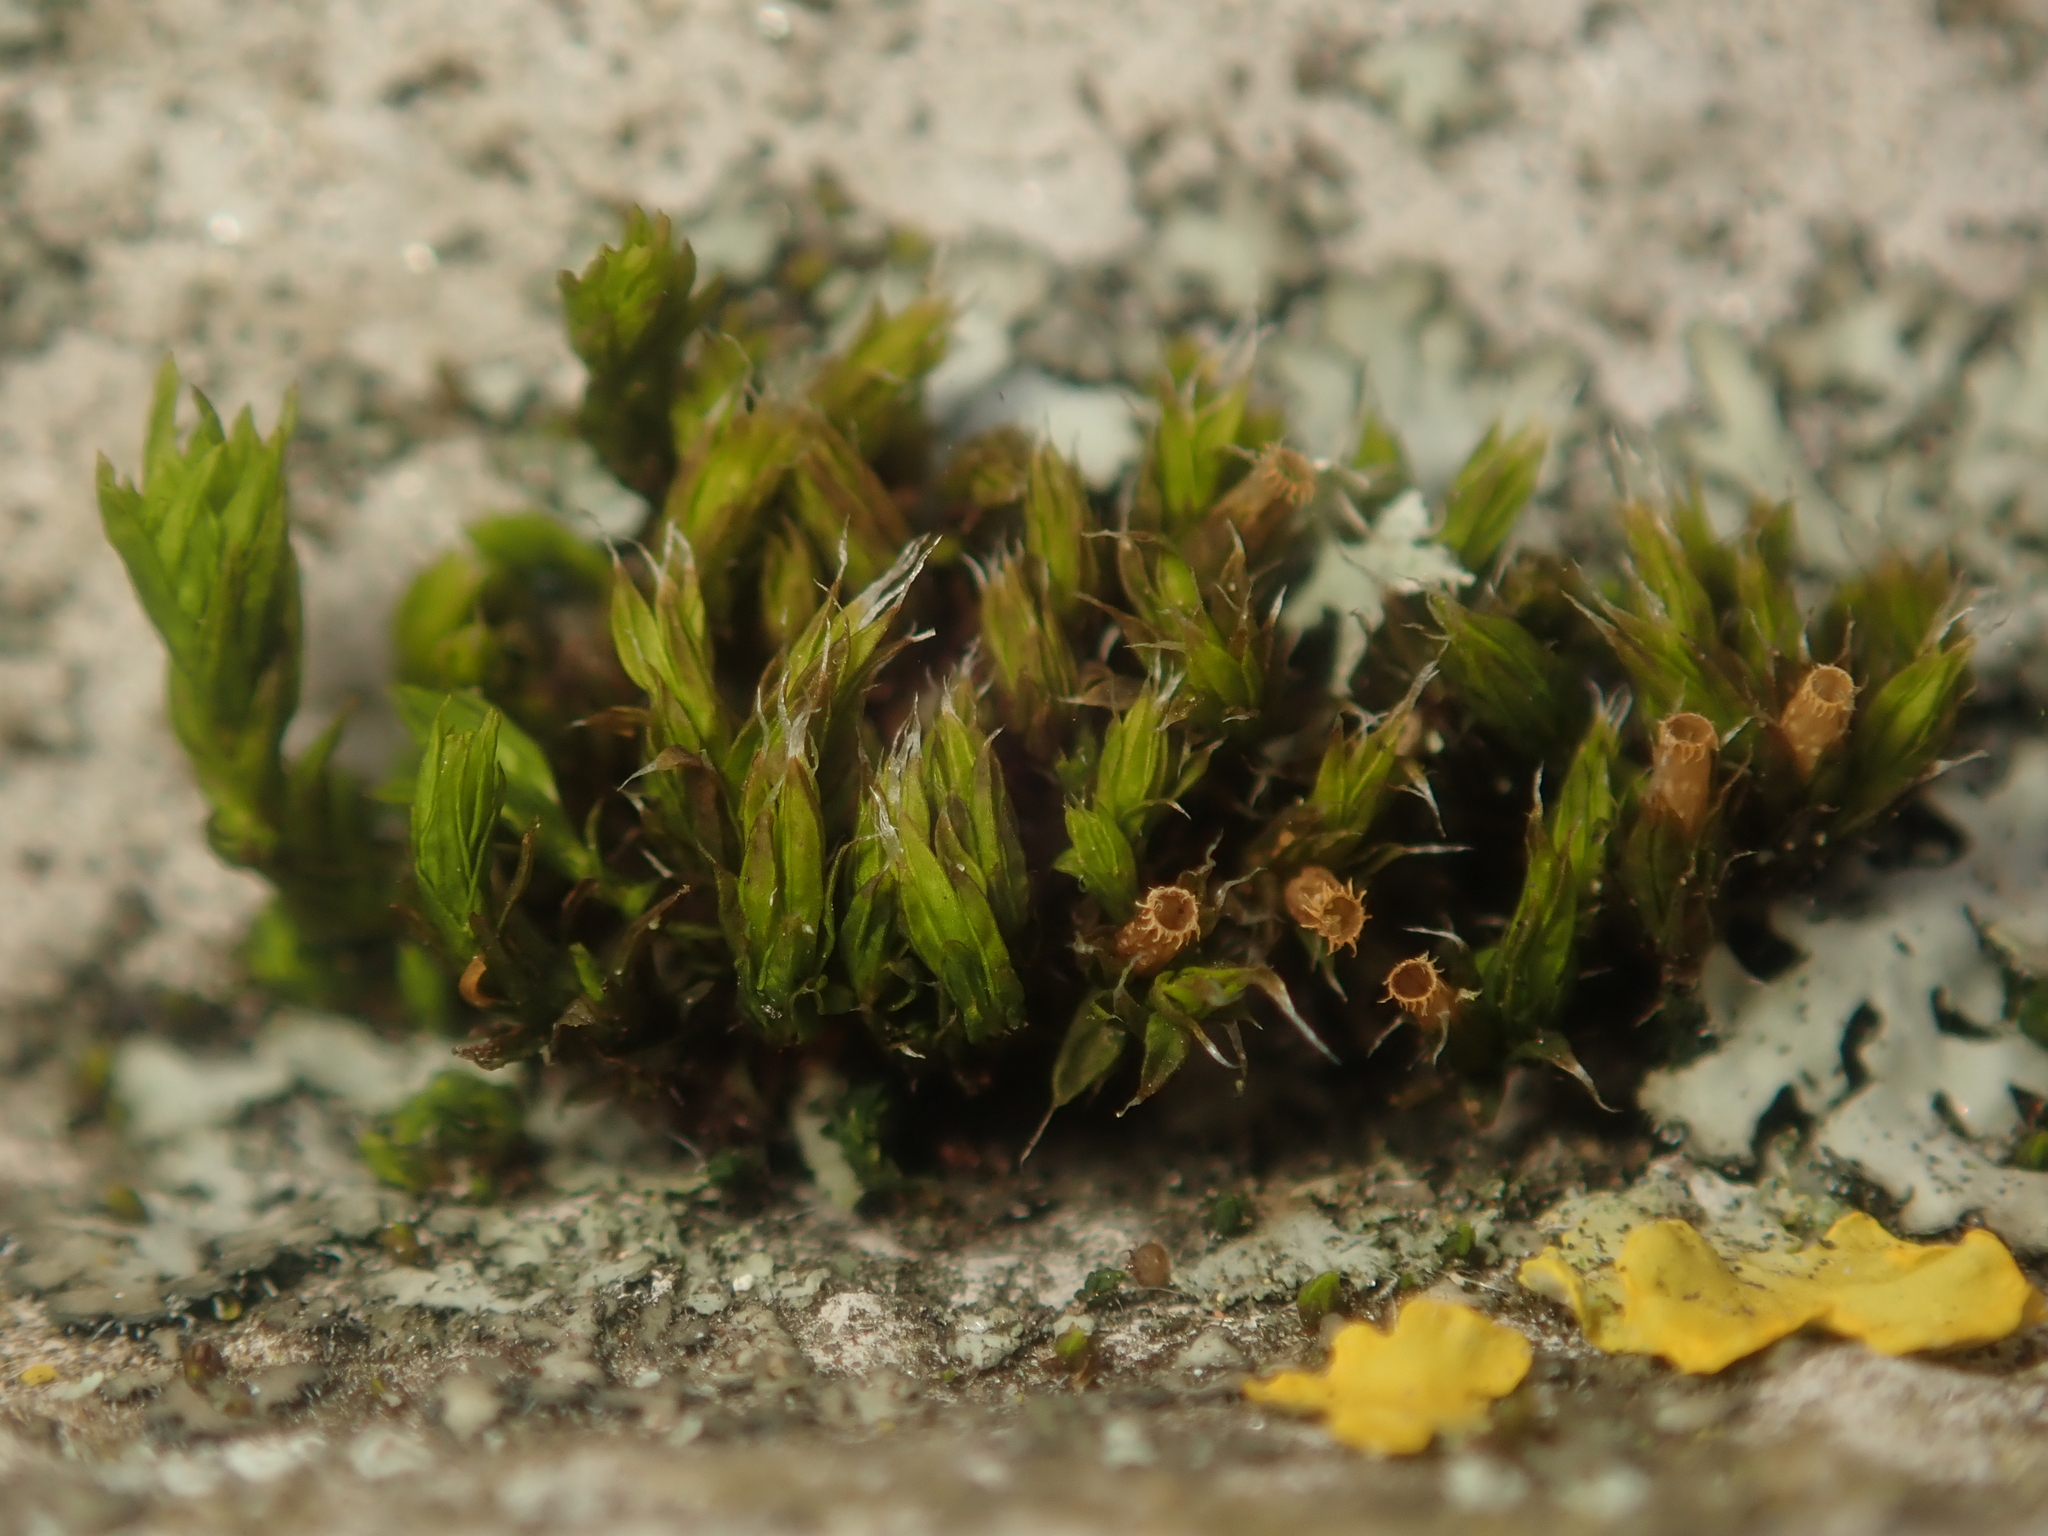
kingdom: Plantae
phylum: Bryophyta
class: Bryopsida
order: Orthotrichales
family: Orthotrichaceae
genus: Orthotrichum
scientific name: Orthotrichum diaphanum
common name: White-tipped bristle-moss
